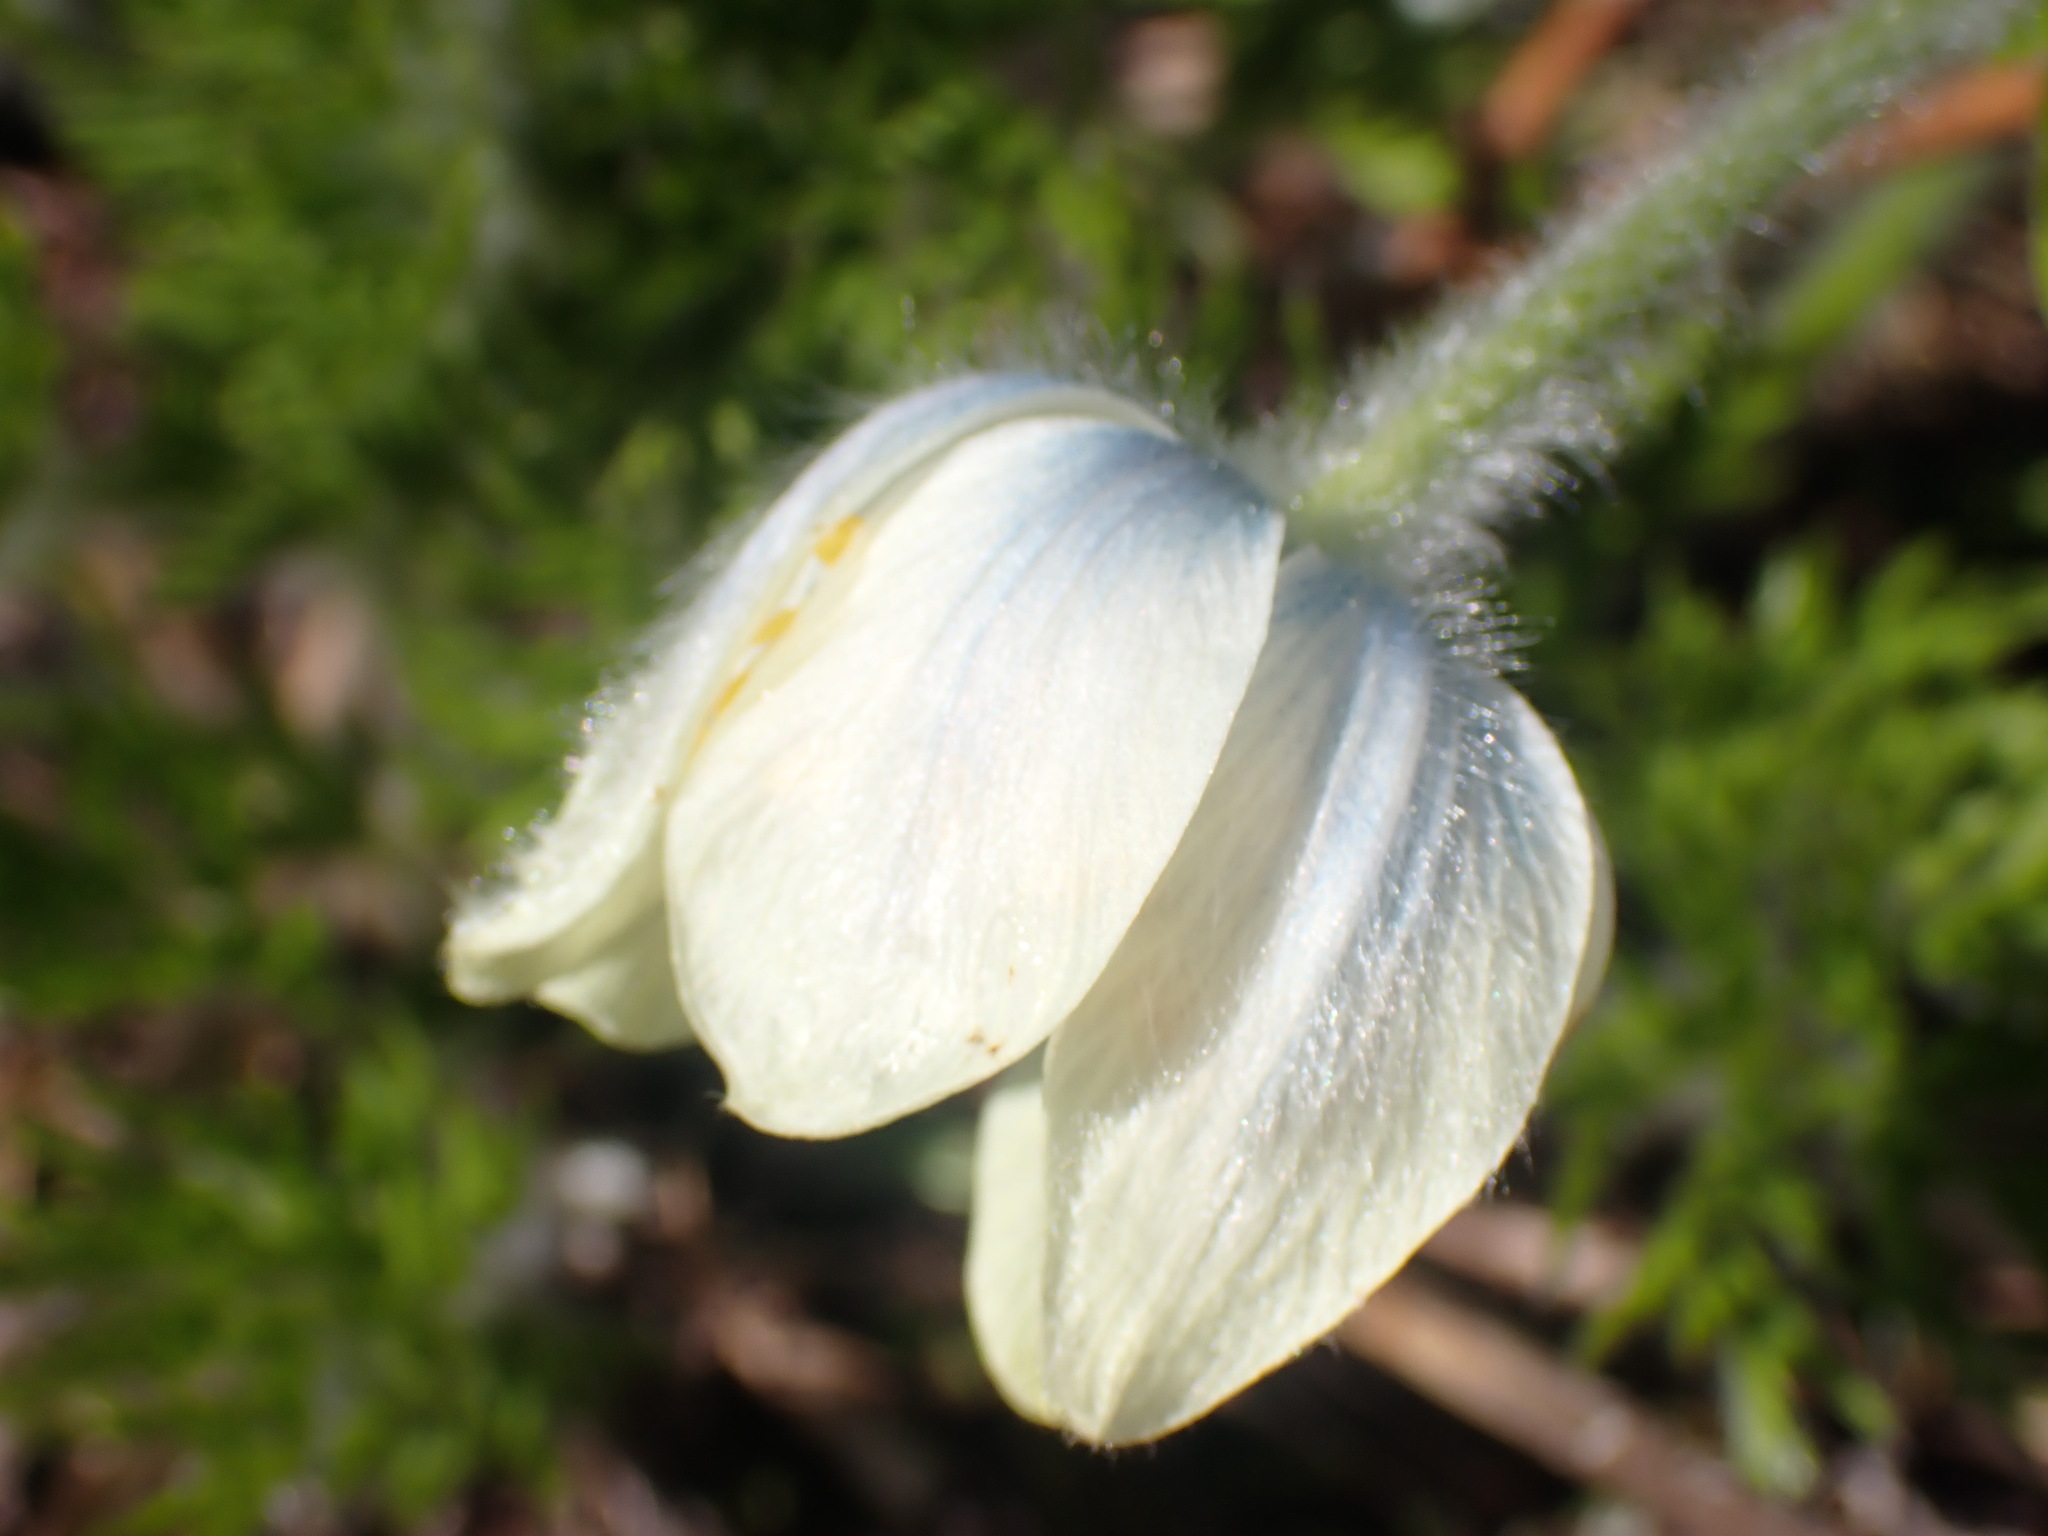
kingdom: Plantae
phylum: Tracheophyta
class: Magnoliopsida
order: Ranunculales
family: Ranunculaceae
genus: Pulsatilla
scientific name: Pulsatilla occidentalis
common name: Mountain pasqueflower
